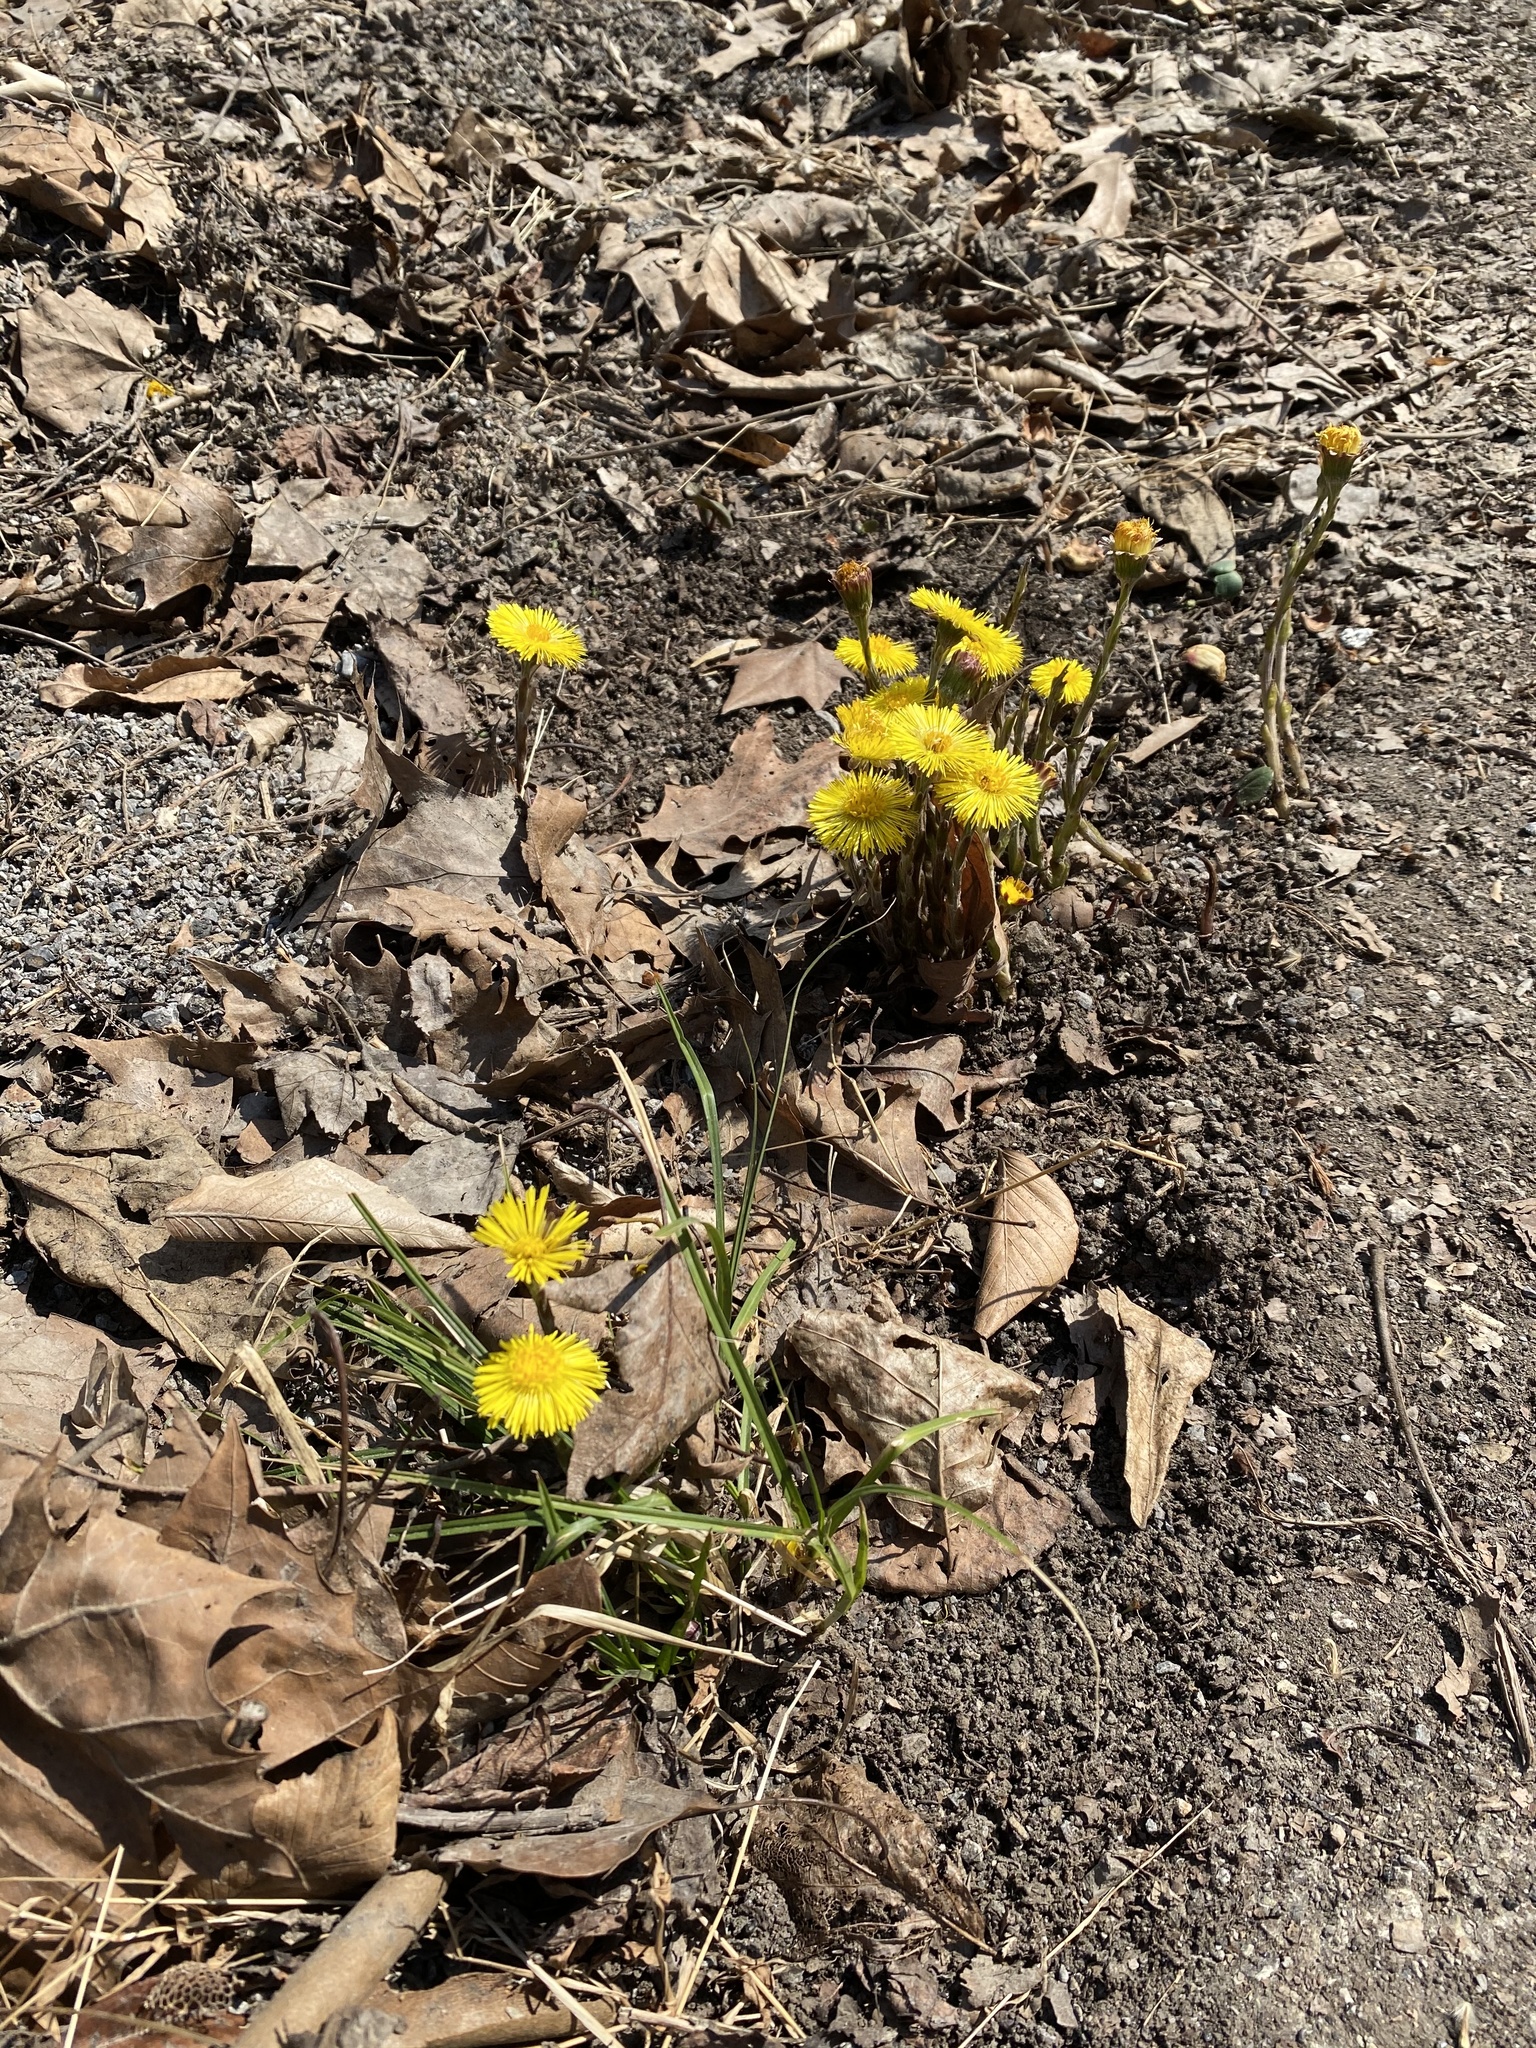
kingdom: Plantae
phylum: Tracheophyta
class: Magnoliopsida
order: Asterales
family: Asteraceae
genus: Tussilago
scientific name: Tussilago farfara
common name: Coltsfoot
